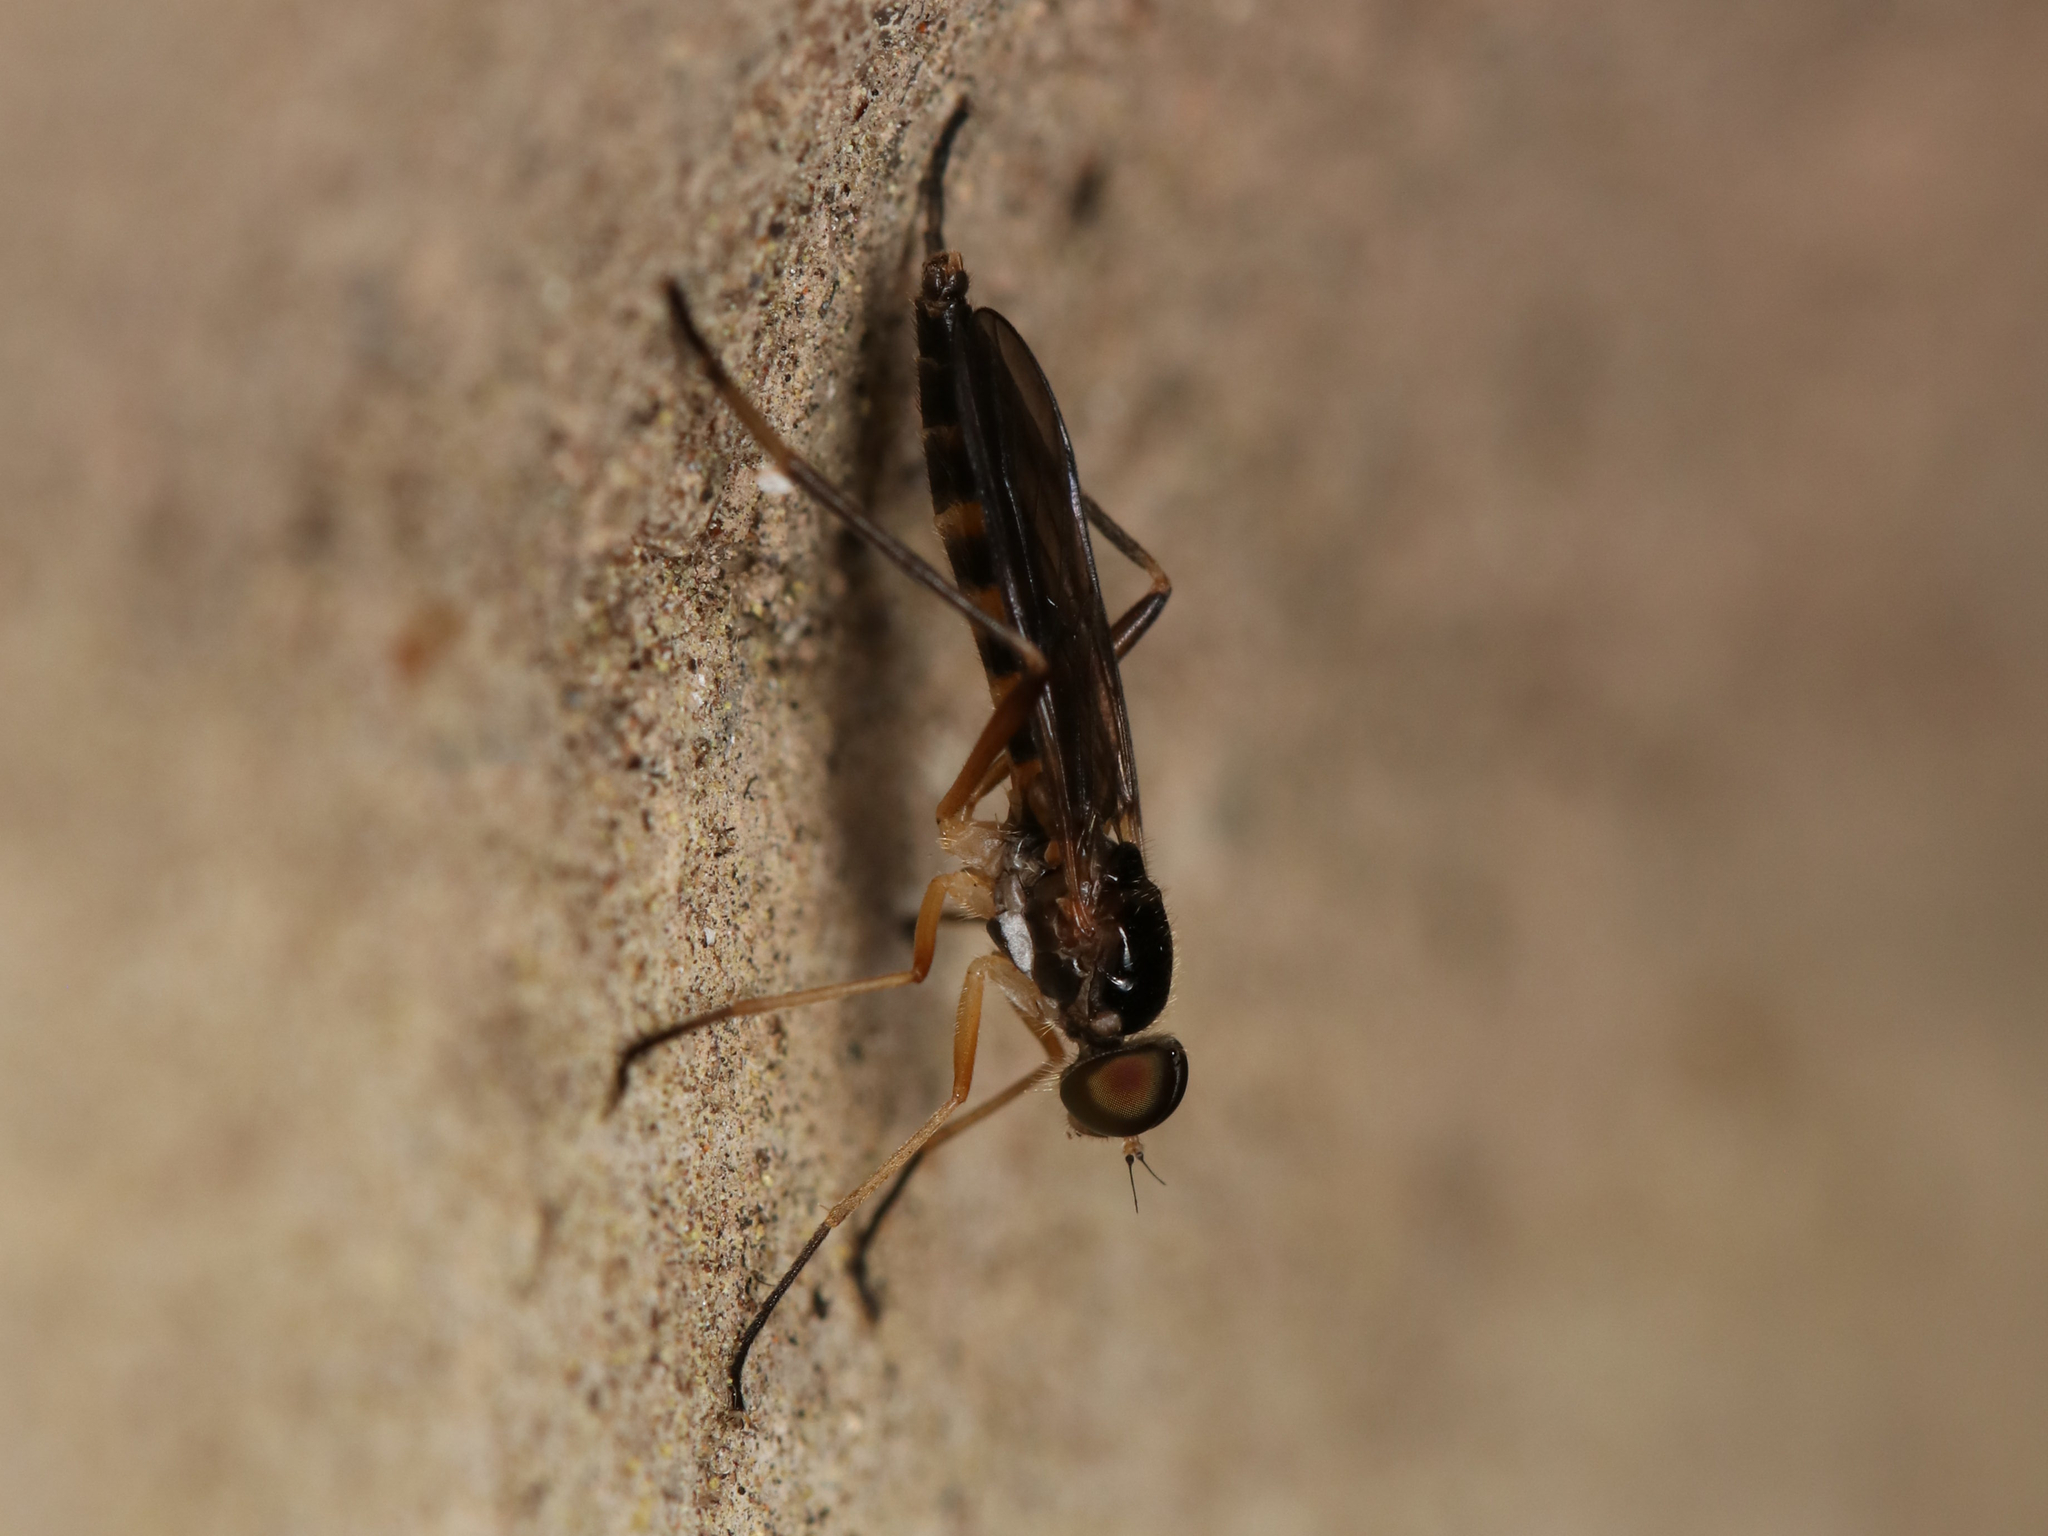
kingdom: Animalia
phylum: Arthropoda
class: Insecta
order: Diptera
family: Xylophagidae
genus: Dialysis
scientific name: Dialysis elongata
